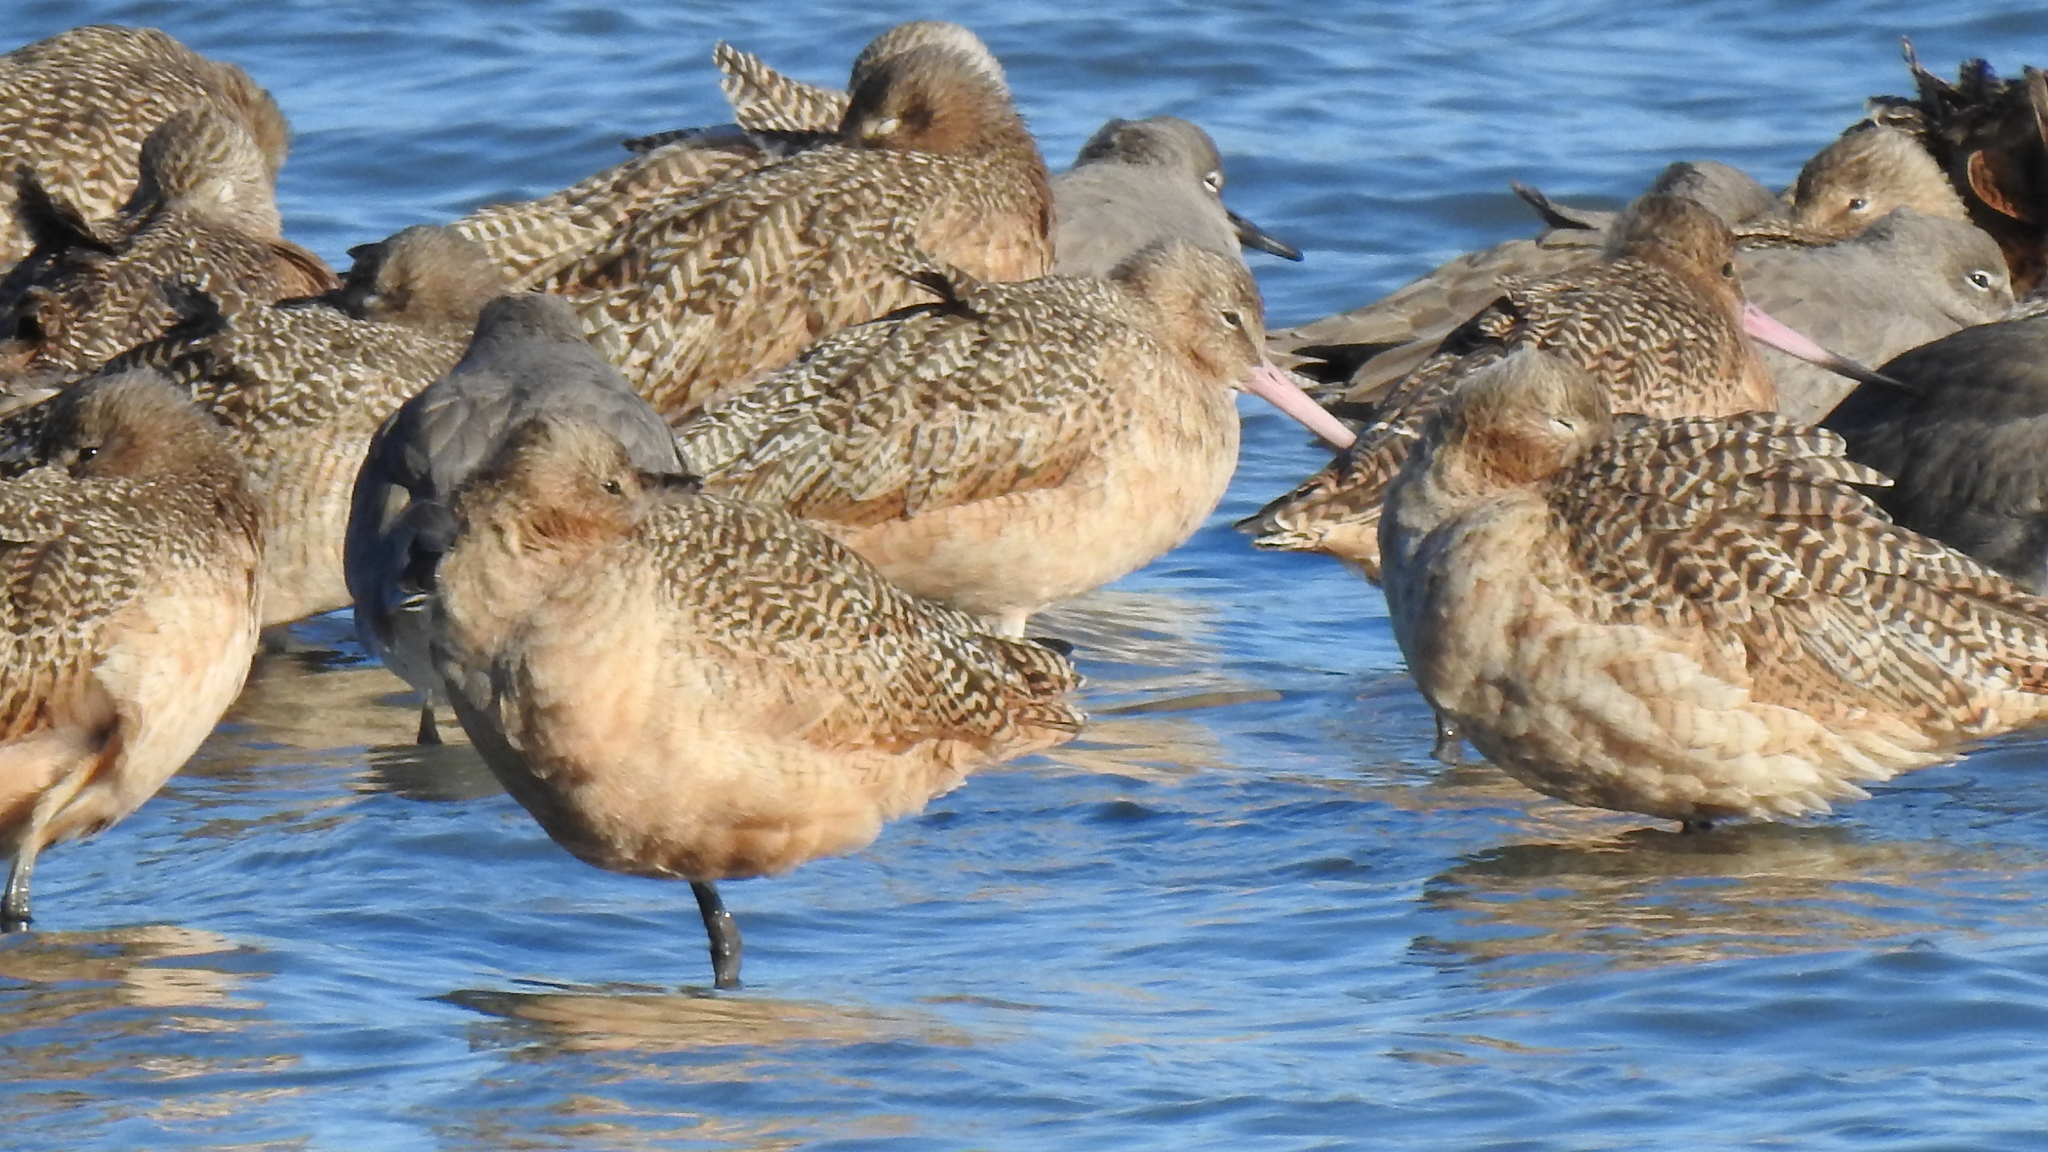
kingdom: Animalia
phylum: Chordata
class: Aves
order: Charadriiformes
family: Scolopacidae
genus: Limosa
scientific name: Limosa fedoa
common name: Marbled godwit
